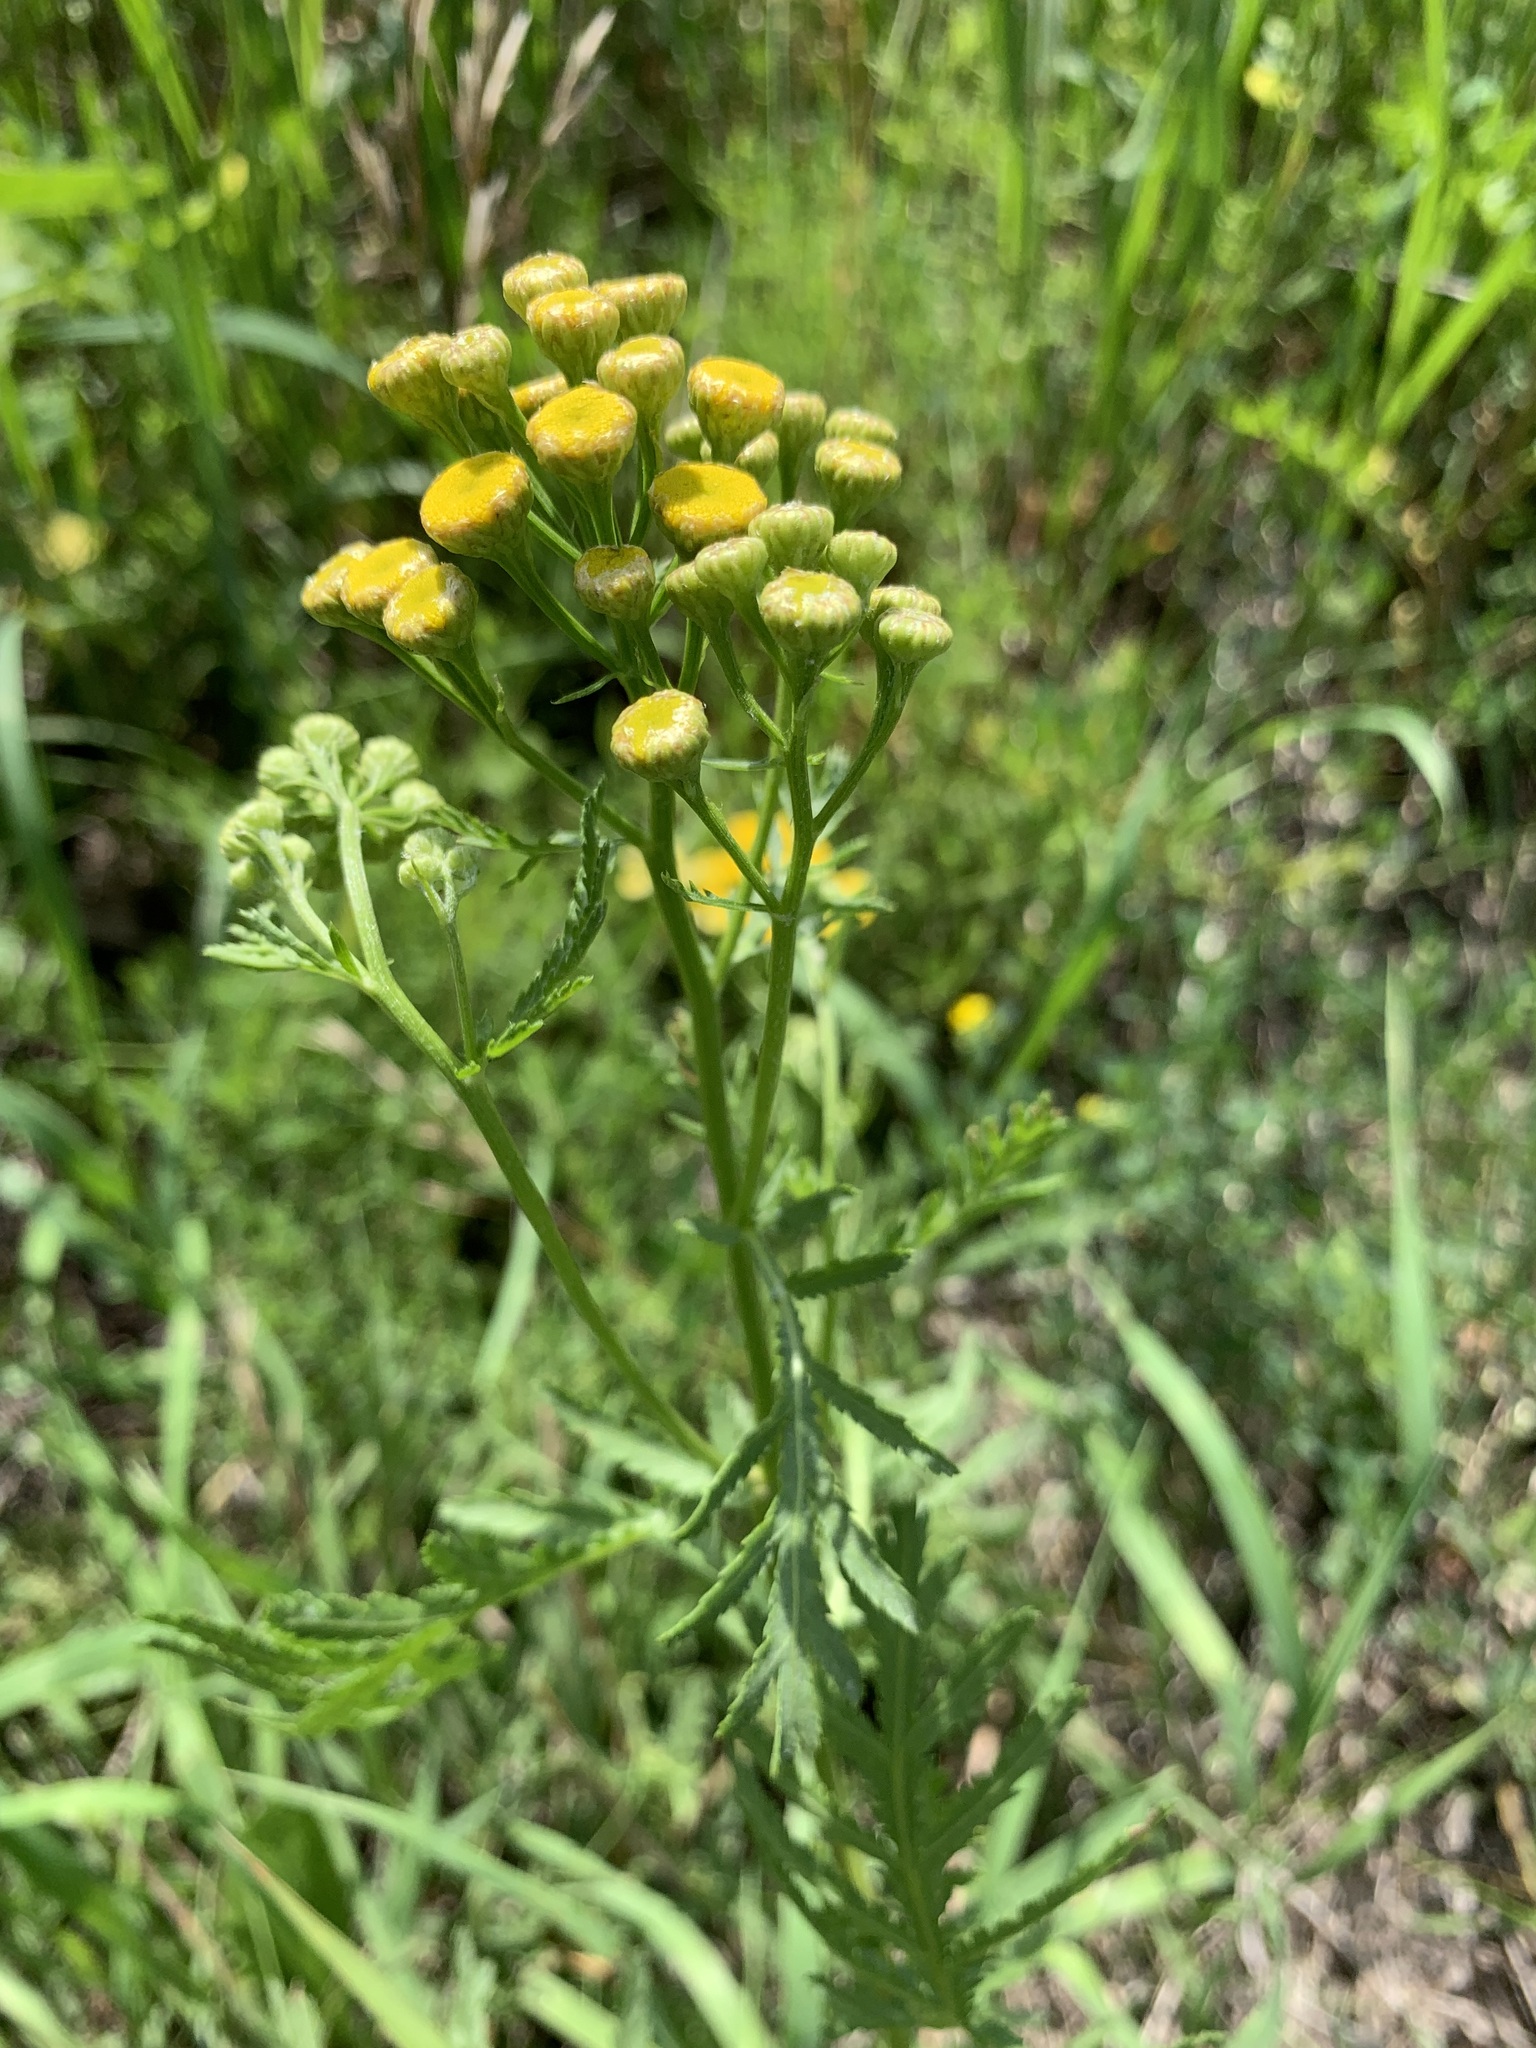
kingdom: Plantae
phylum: Tracheophyta
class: Magnoliopsida
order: Asterales
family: Asteraceae
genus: Tanacetum
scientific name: Tanacetum vulgare
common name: Common tansy
